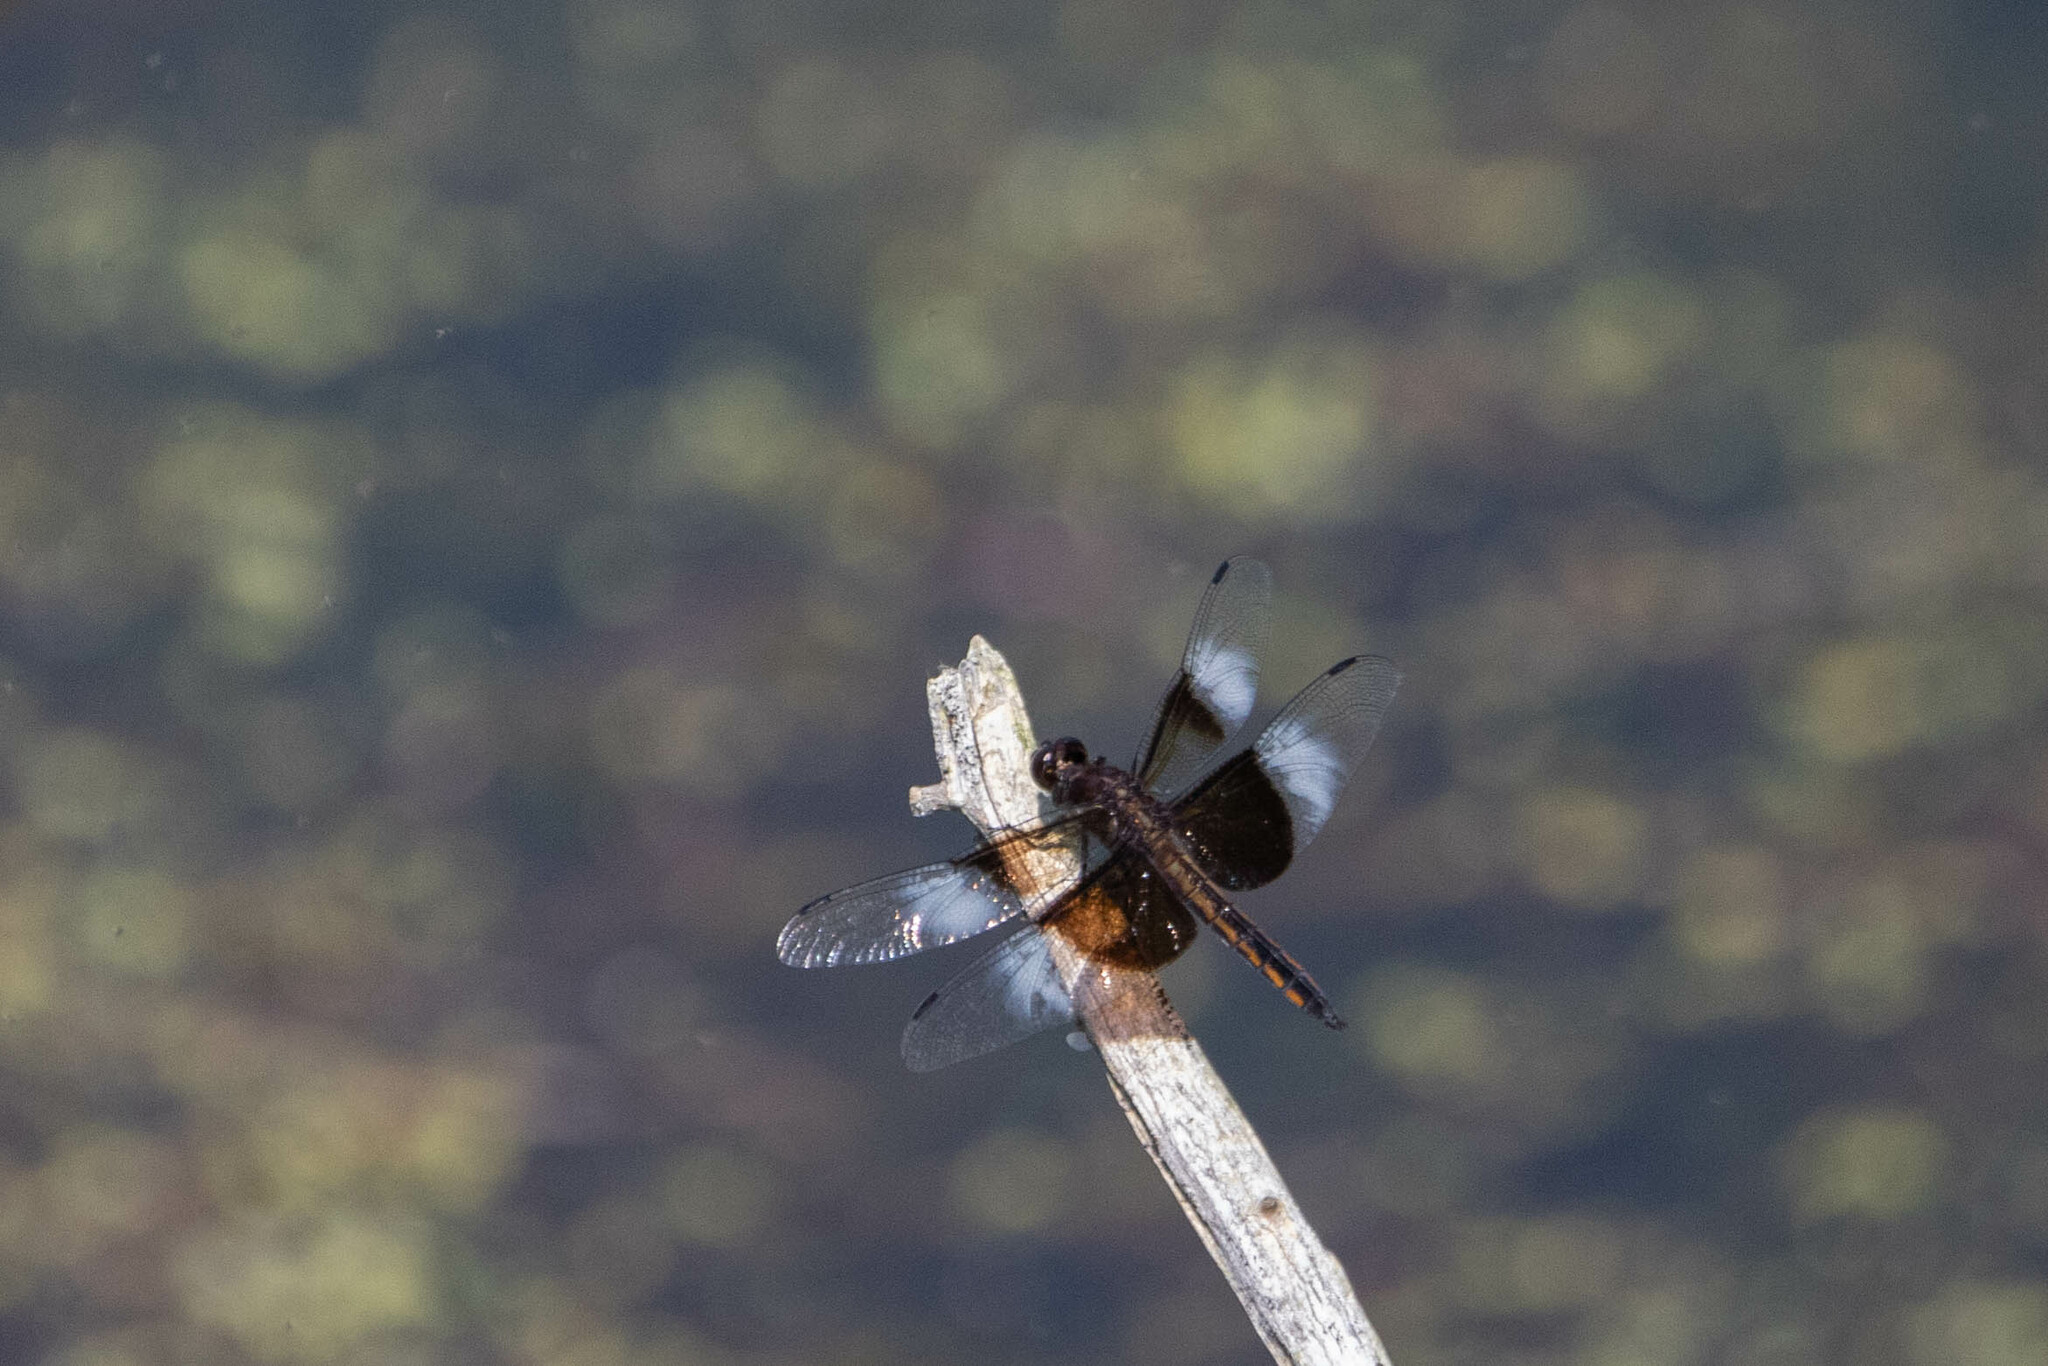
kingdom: Animalia
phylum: Arthropoda
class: Insecta
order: Odonata
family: Libellulidae
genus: Libellula
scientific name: Libellula luctuosa
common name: Widow skimmer
